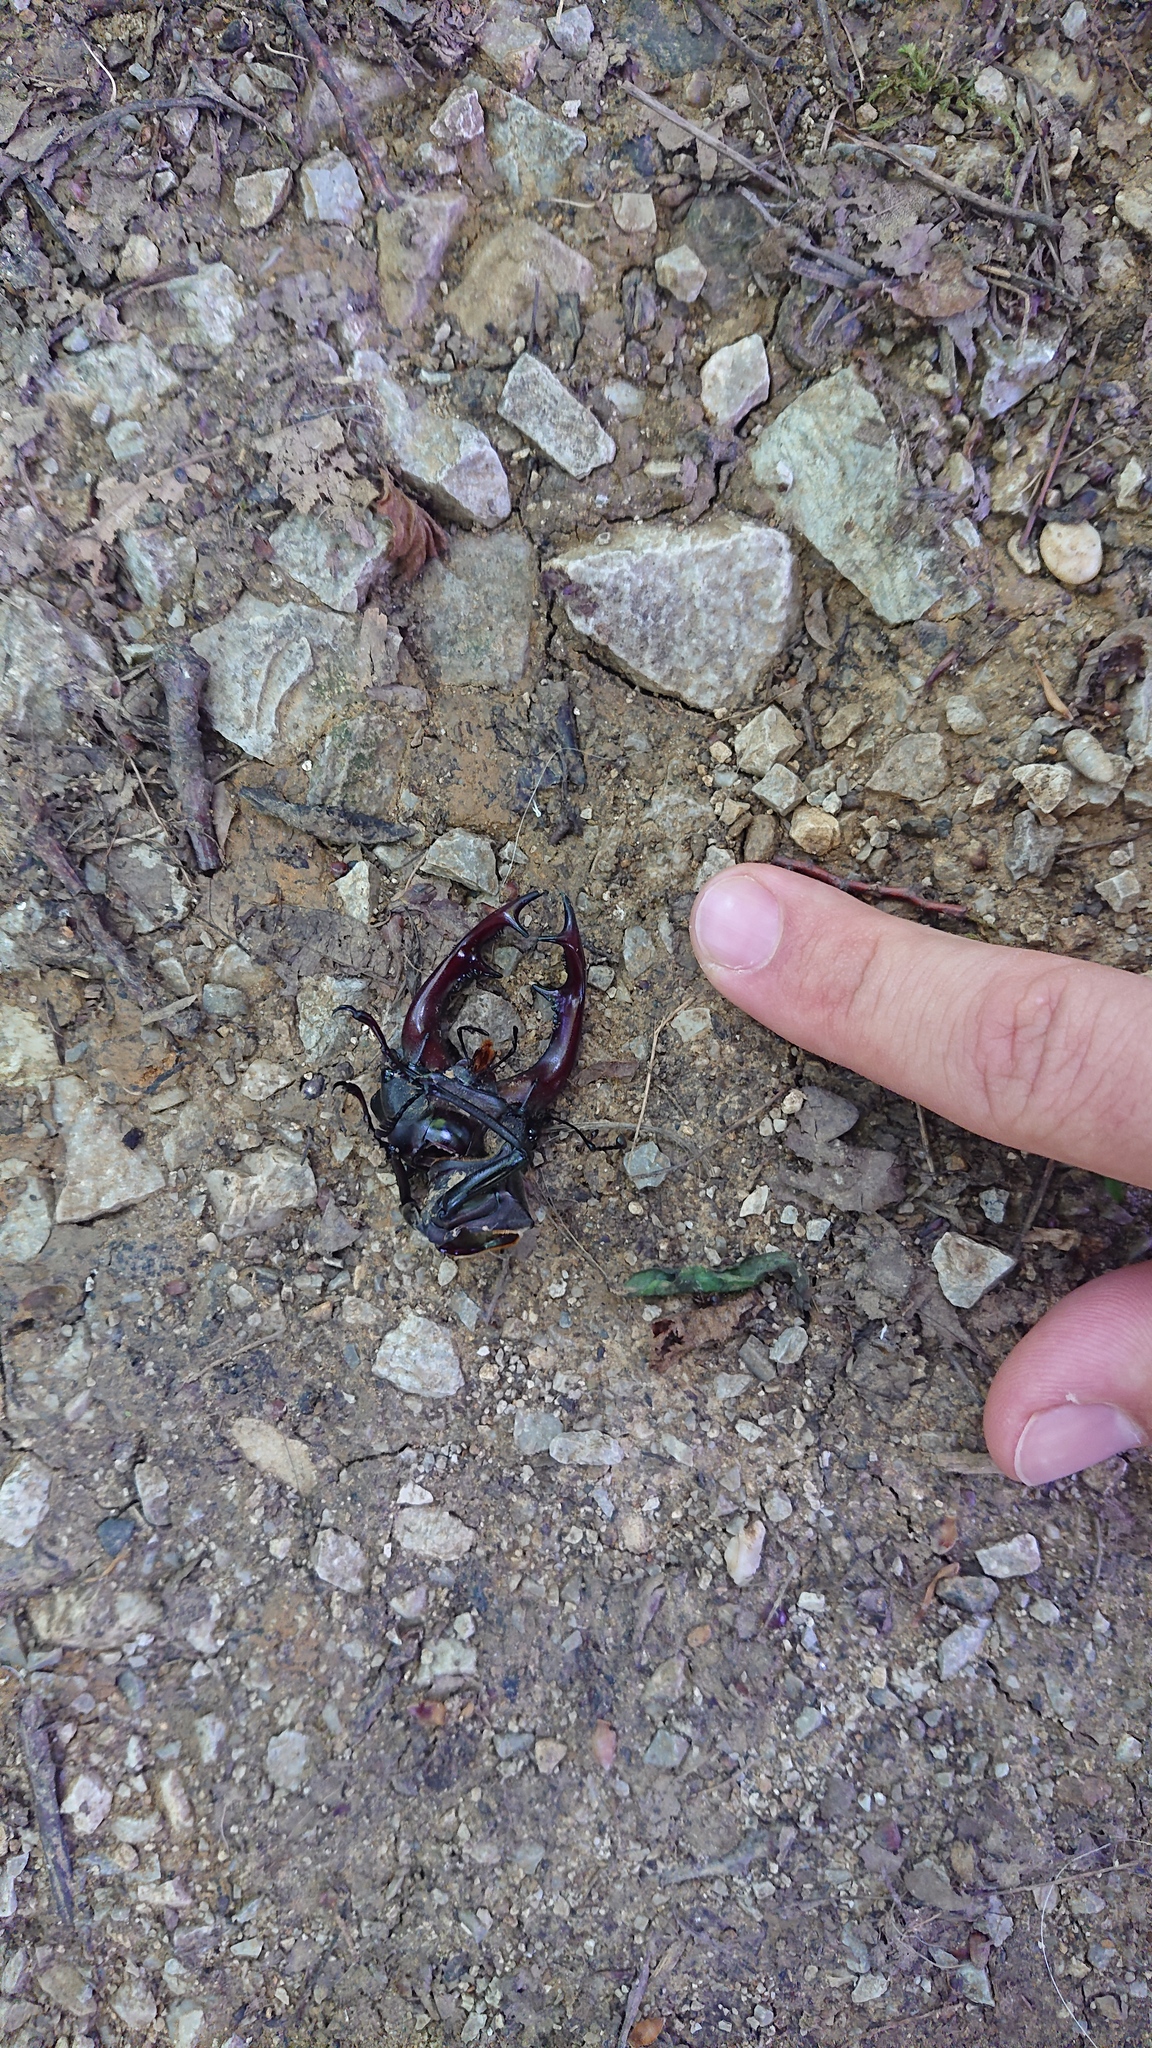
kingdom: Animalia
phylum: Arthropoda
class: Insecta
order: Coleoptera
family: Lucanidae
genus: Lucanus
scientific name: Lucanus cervus
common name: Stag beetle
